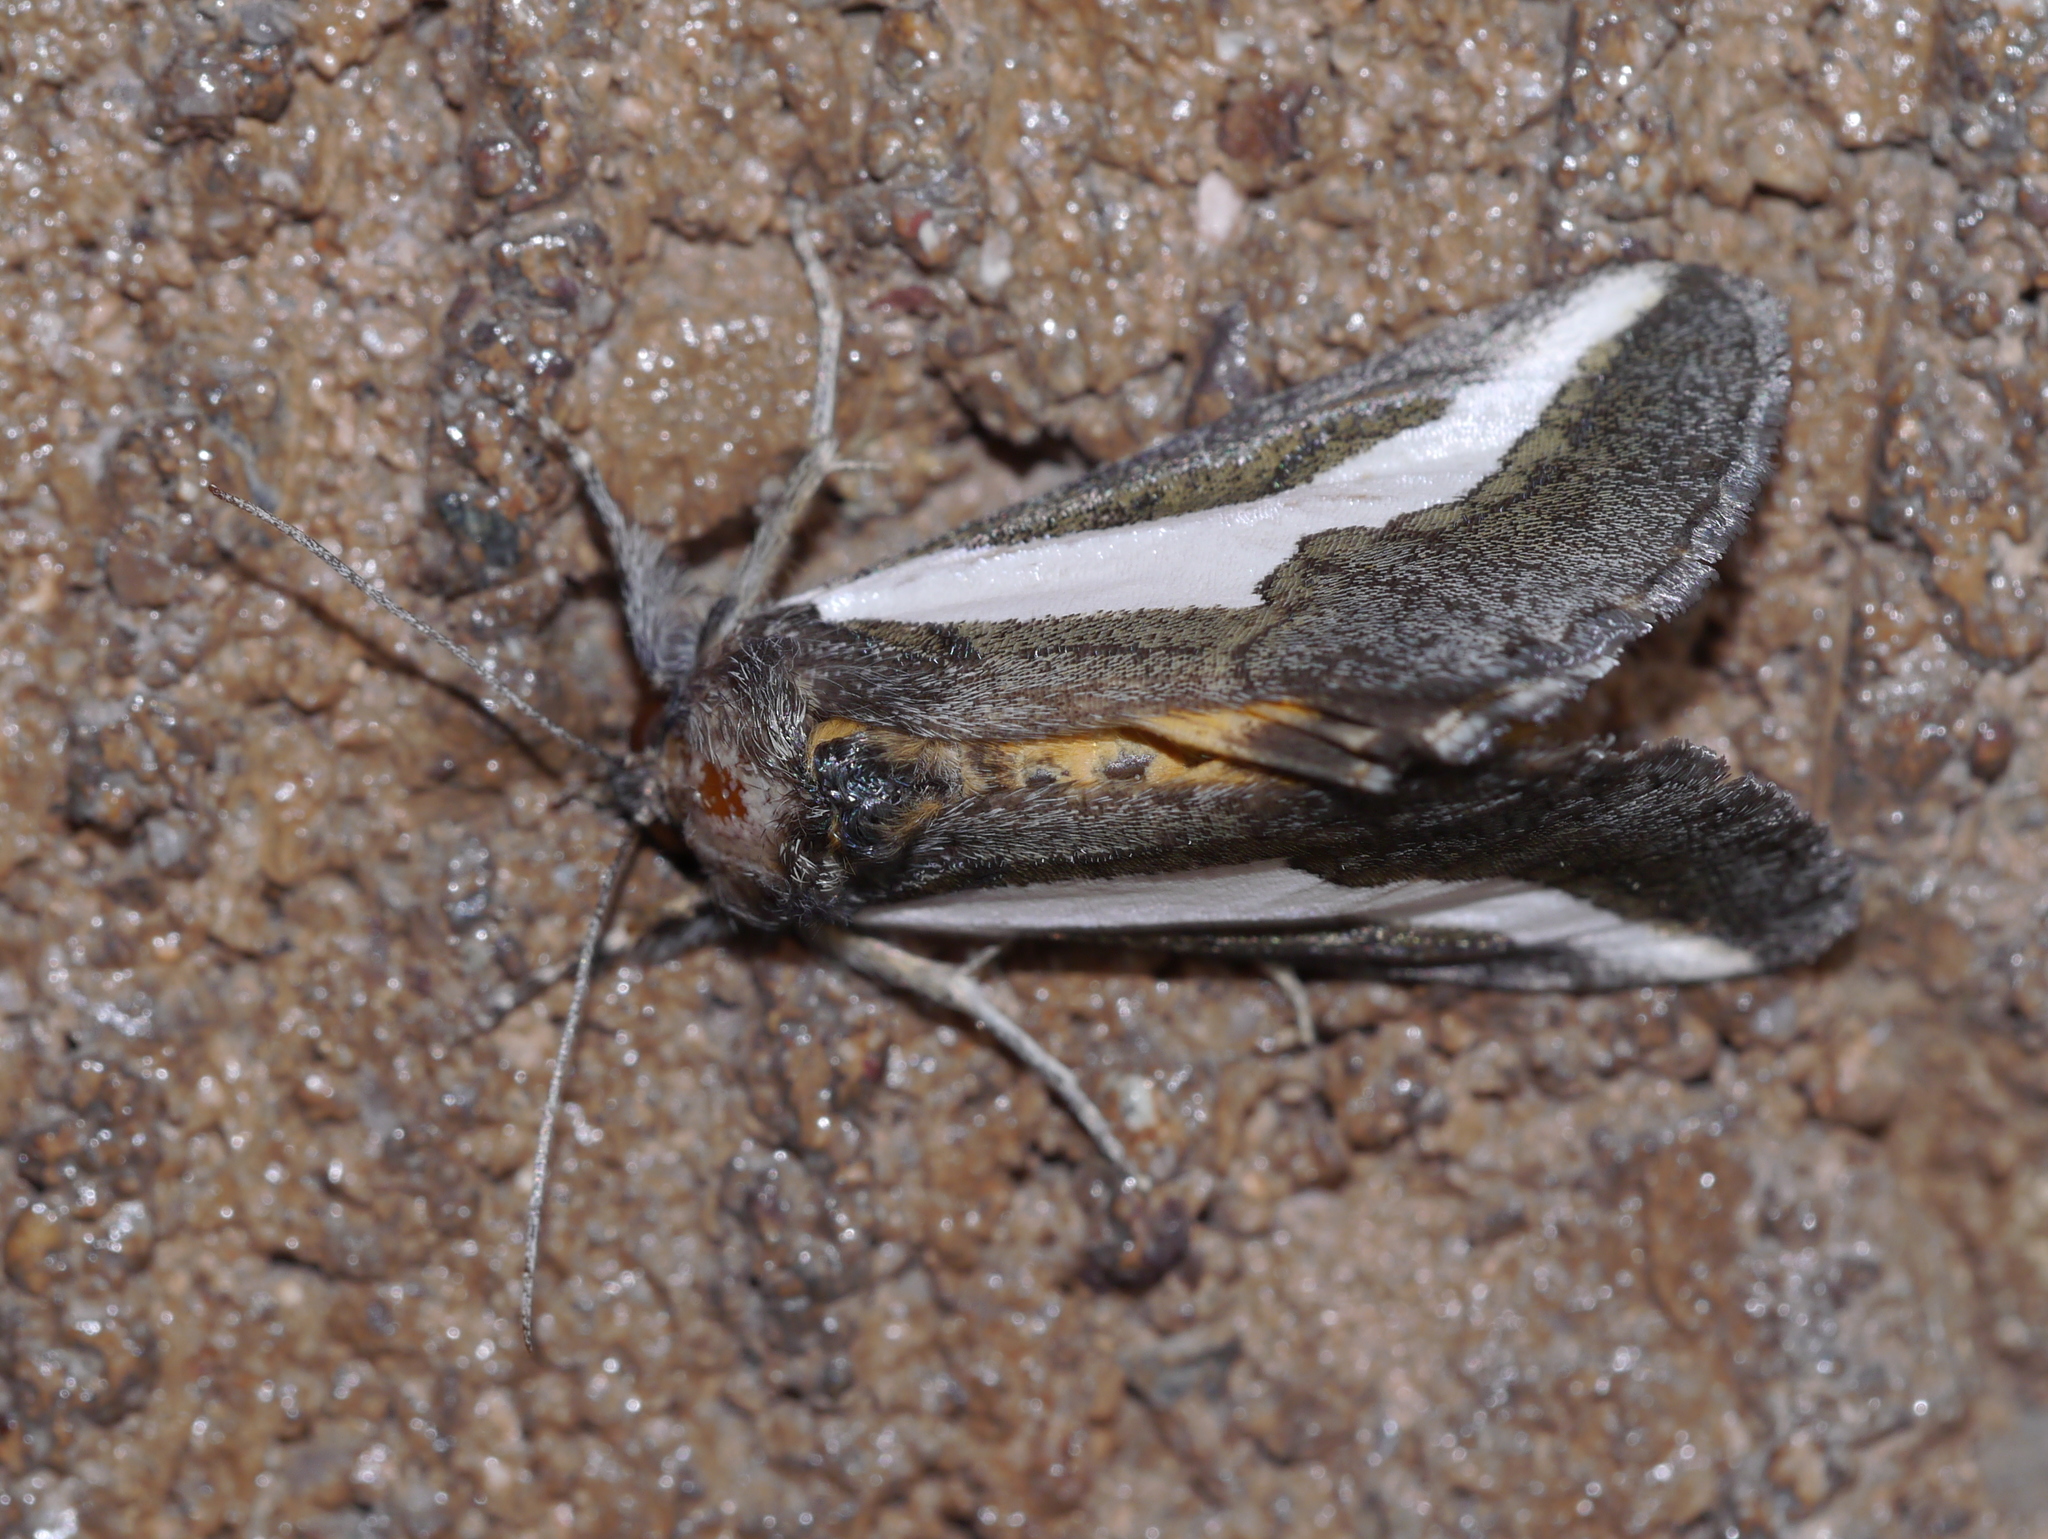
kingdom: Animalia
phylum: Arthropoda
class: Insecta
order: Lepidoptera
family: Noctuidae
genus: Euscirrhopterus
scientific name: Euscirrhopterus cosyra
